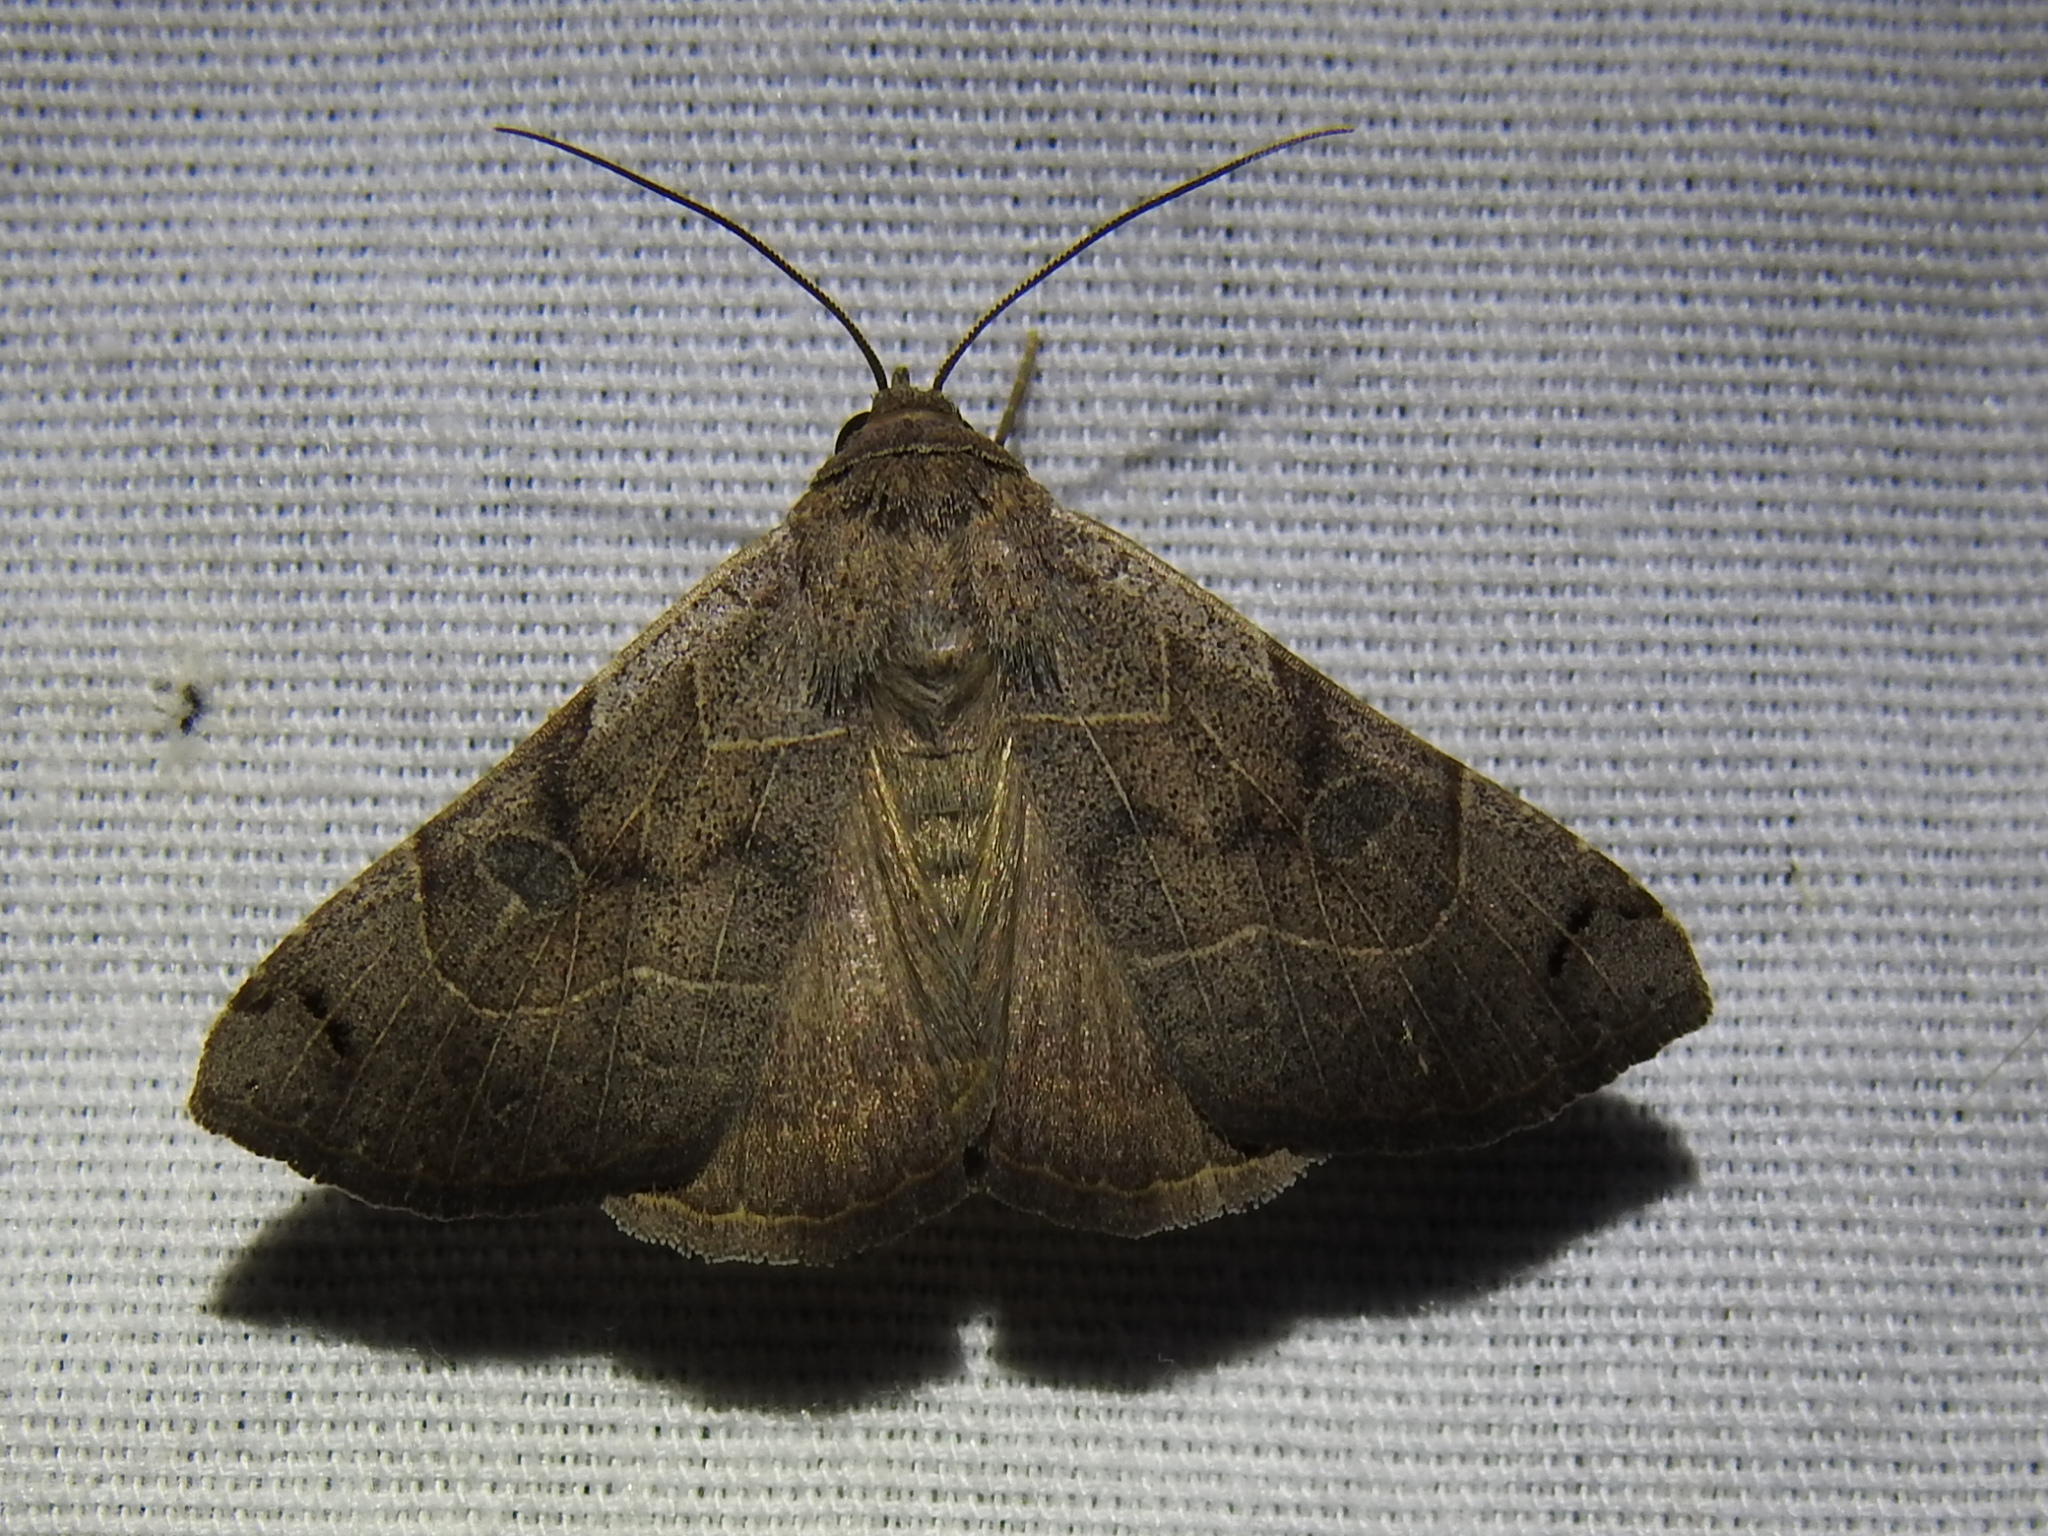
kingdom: Animalia
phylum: Arthropoda
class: Insecta
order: Lepidoptera
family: Erebidae
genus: Isogona
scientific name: Isogona scindens
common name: Owlet moth
